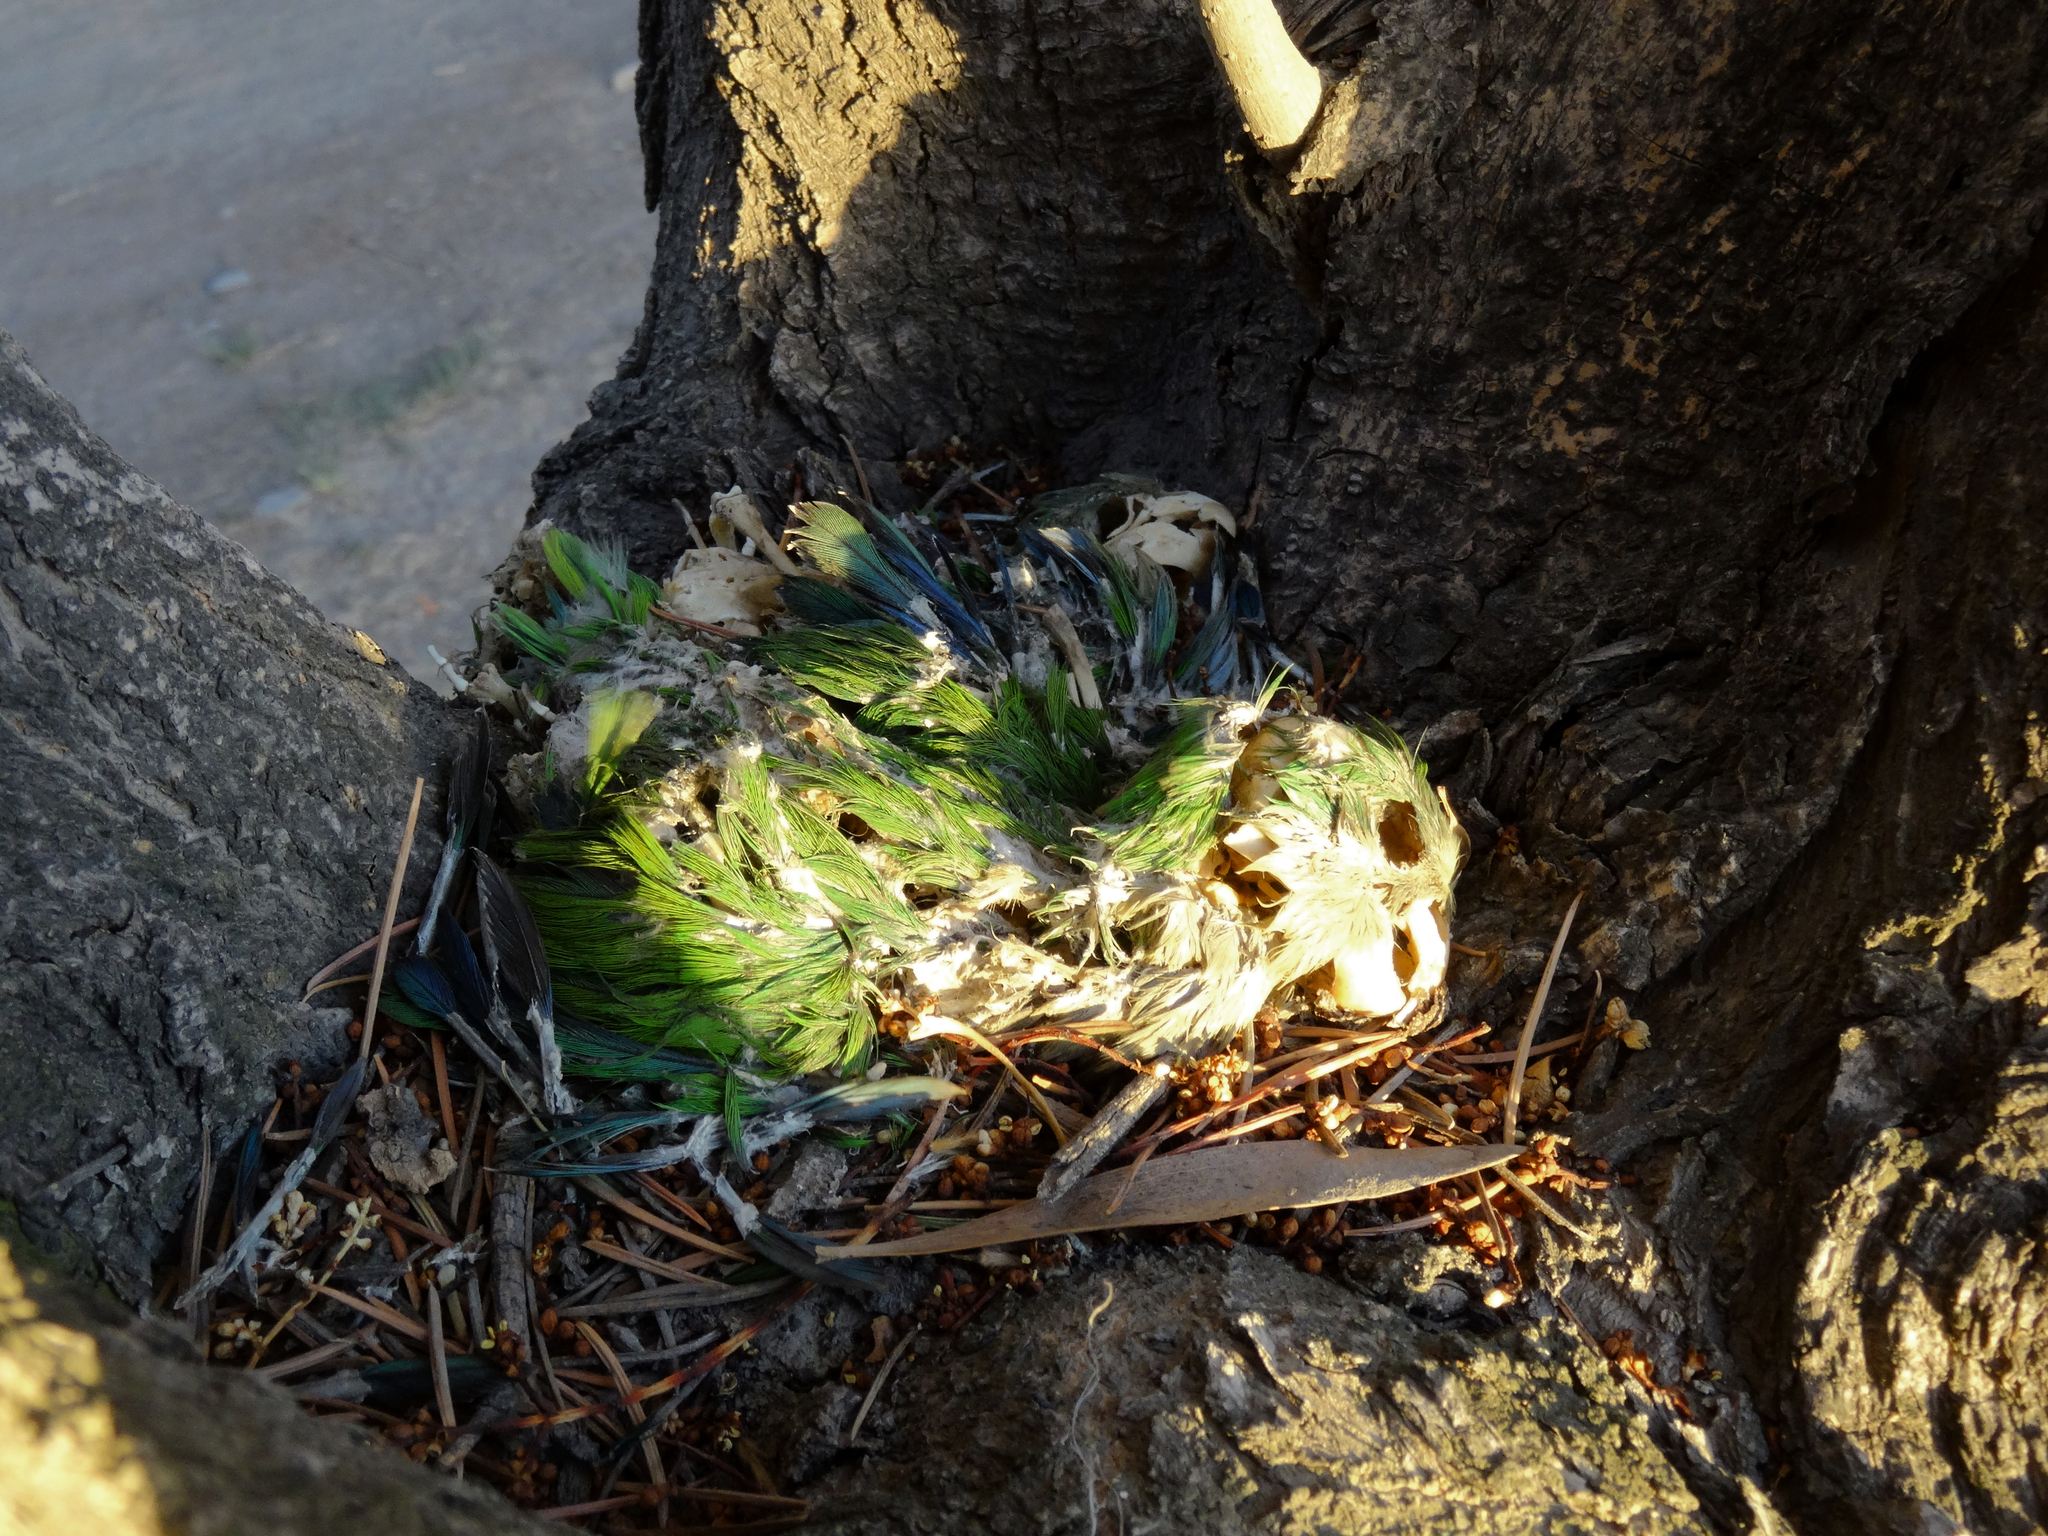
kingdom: Animalia
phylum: Chordata
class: Aves
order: Psittaciformes
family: Psittacidae
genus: Myiopsitta
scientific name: Myiopsitta monachus
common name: Monk parakeet
